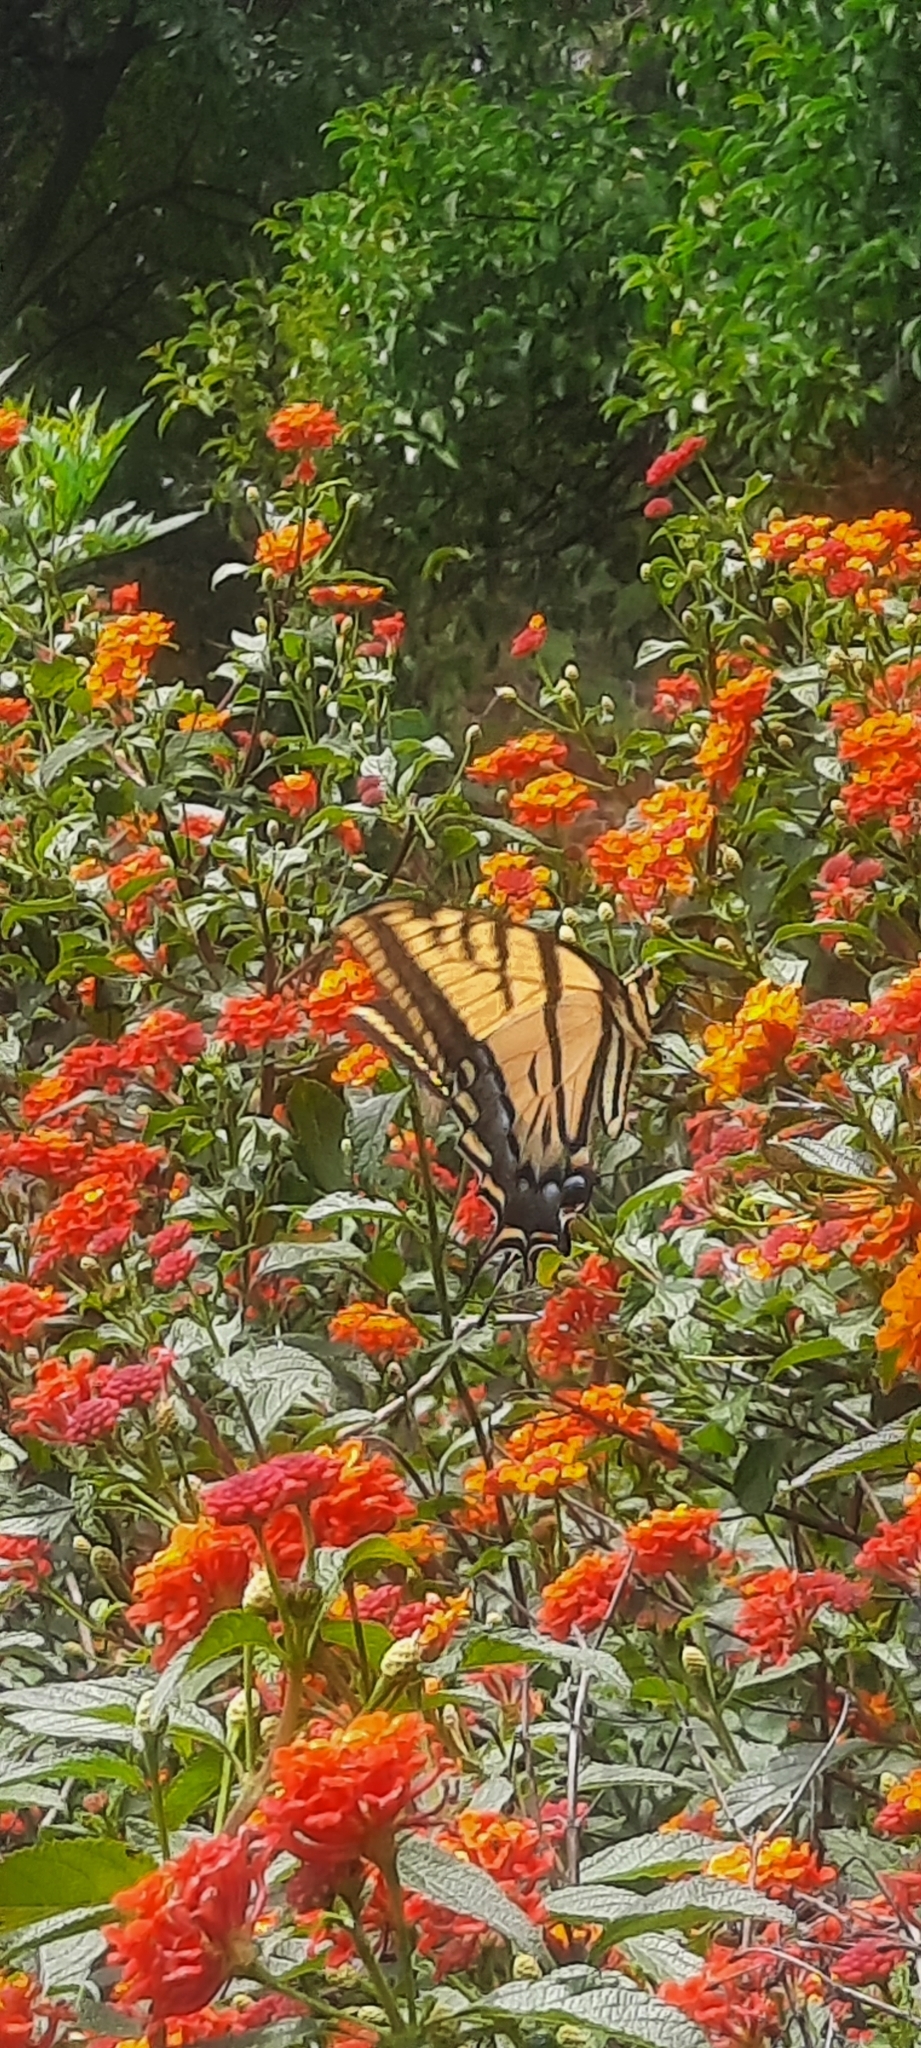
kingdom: Animalia
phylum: Arthropoda
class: Insecta
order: Lepidoptera
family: Papilionidae
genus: Papilio
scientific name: Papilio multicaudata
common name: Two-tailed tiger swallowtail
